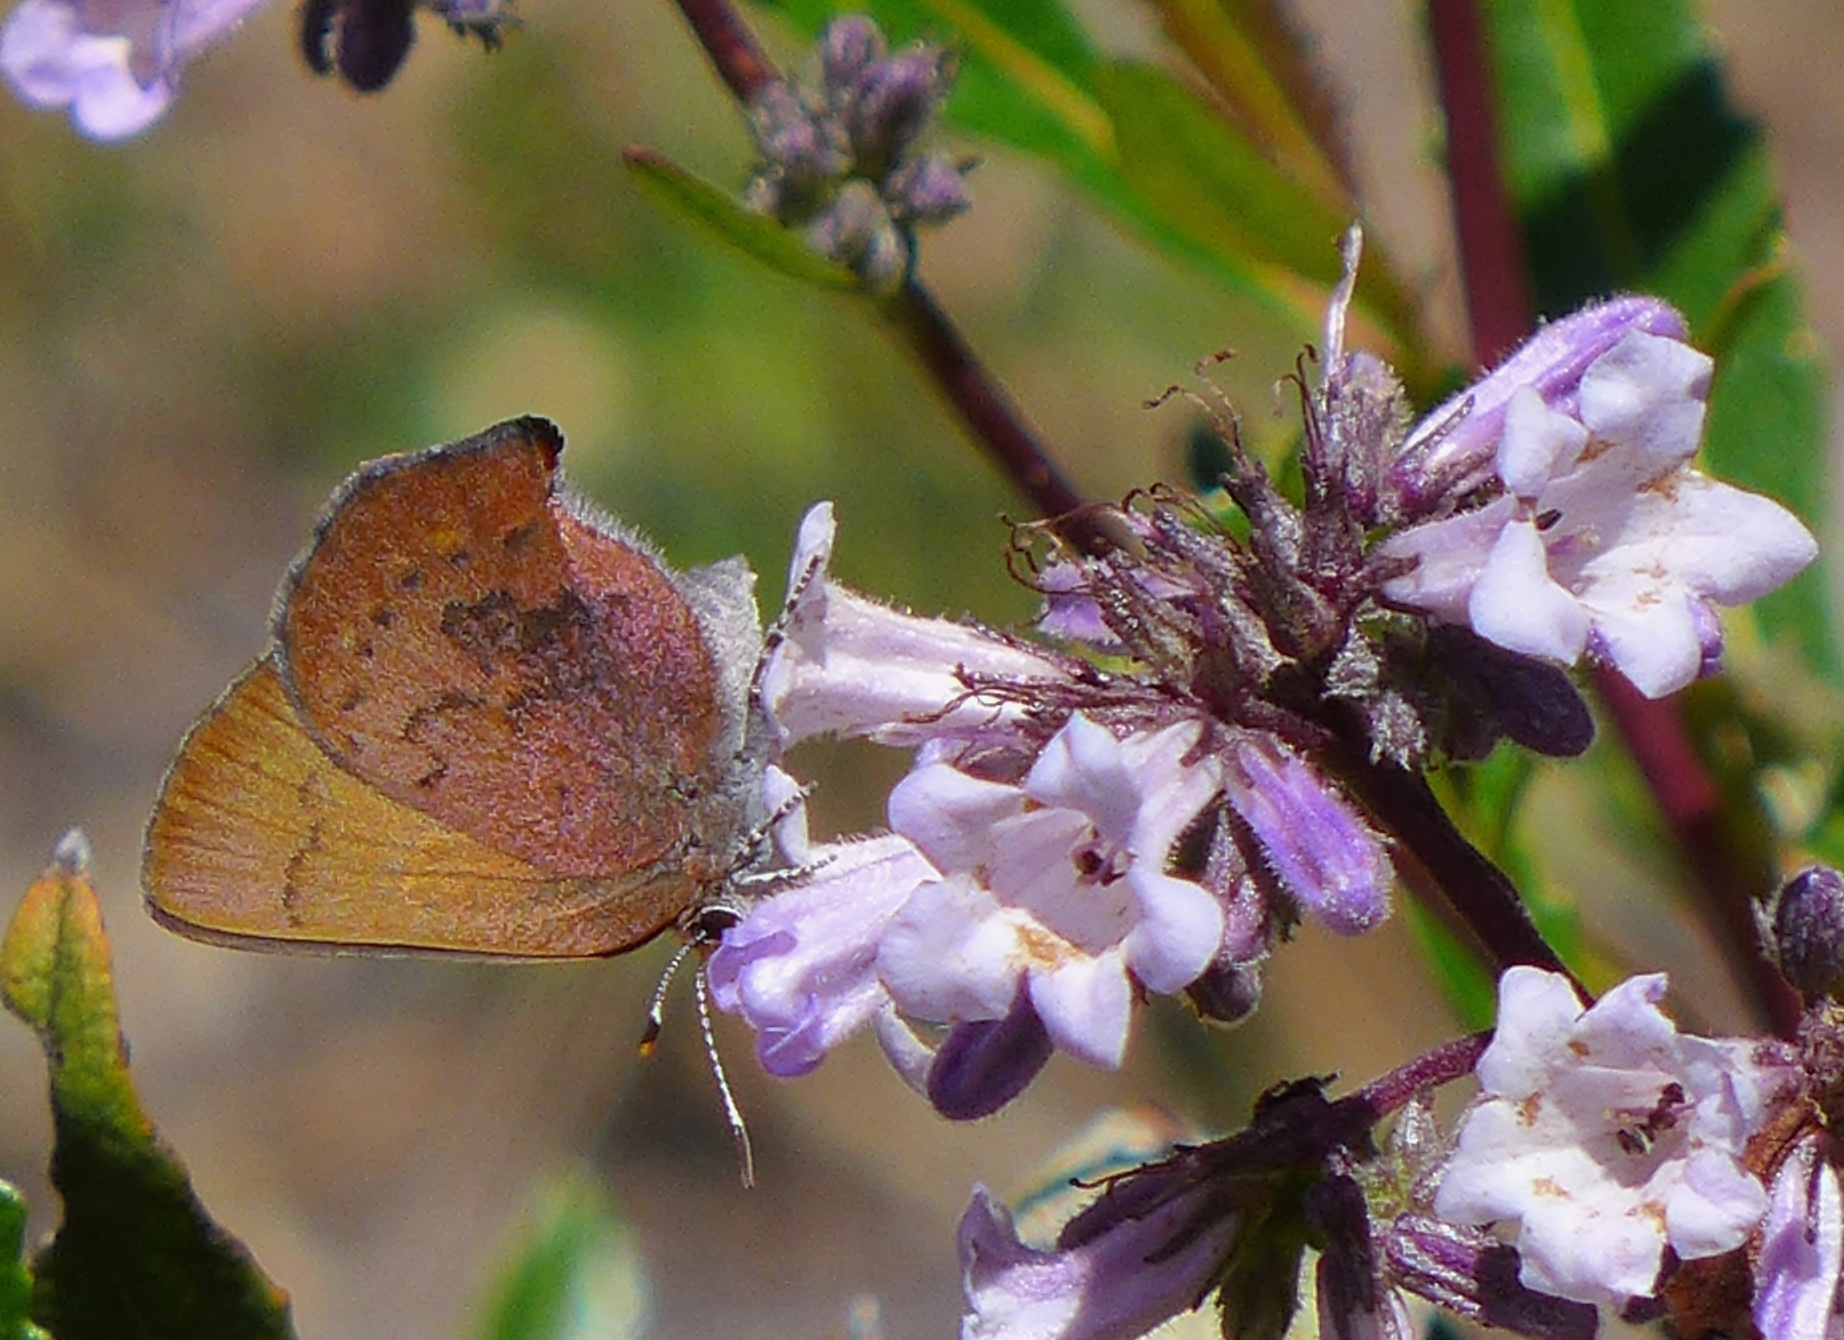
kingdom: Animalia
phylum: Arthropoda
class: Insecta
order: Lepidoptera
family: Lycaenidae
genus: Incisalia
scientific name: Incisalia irioides
